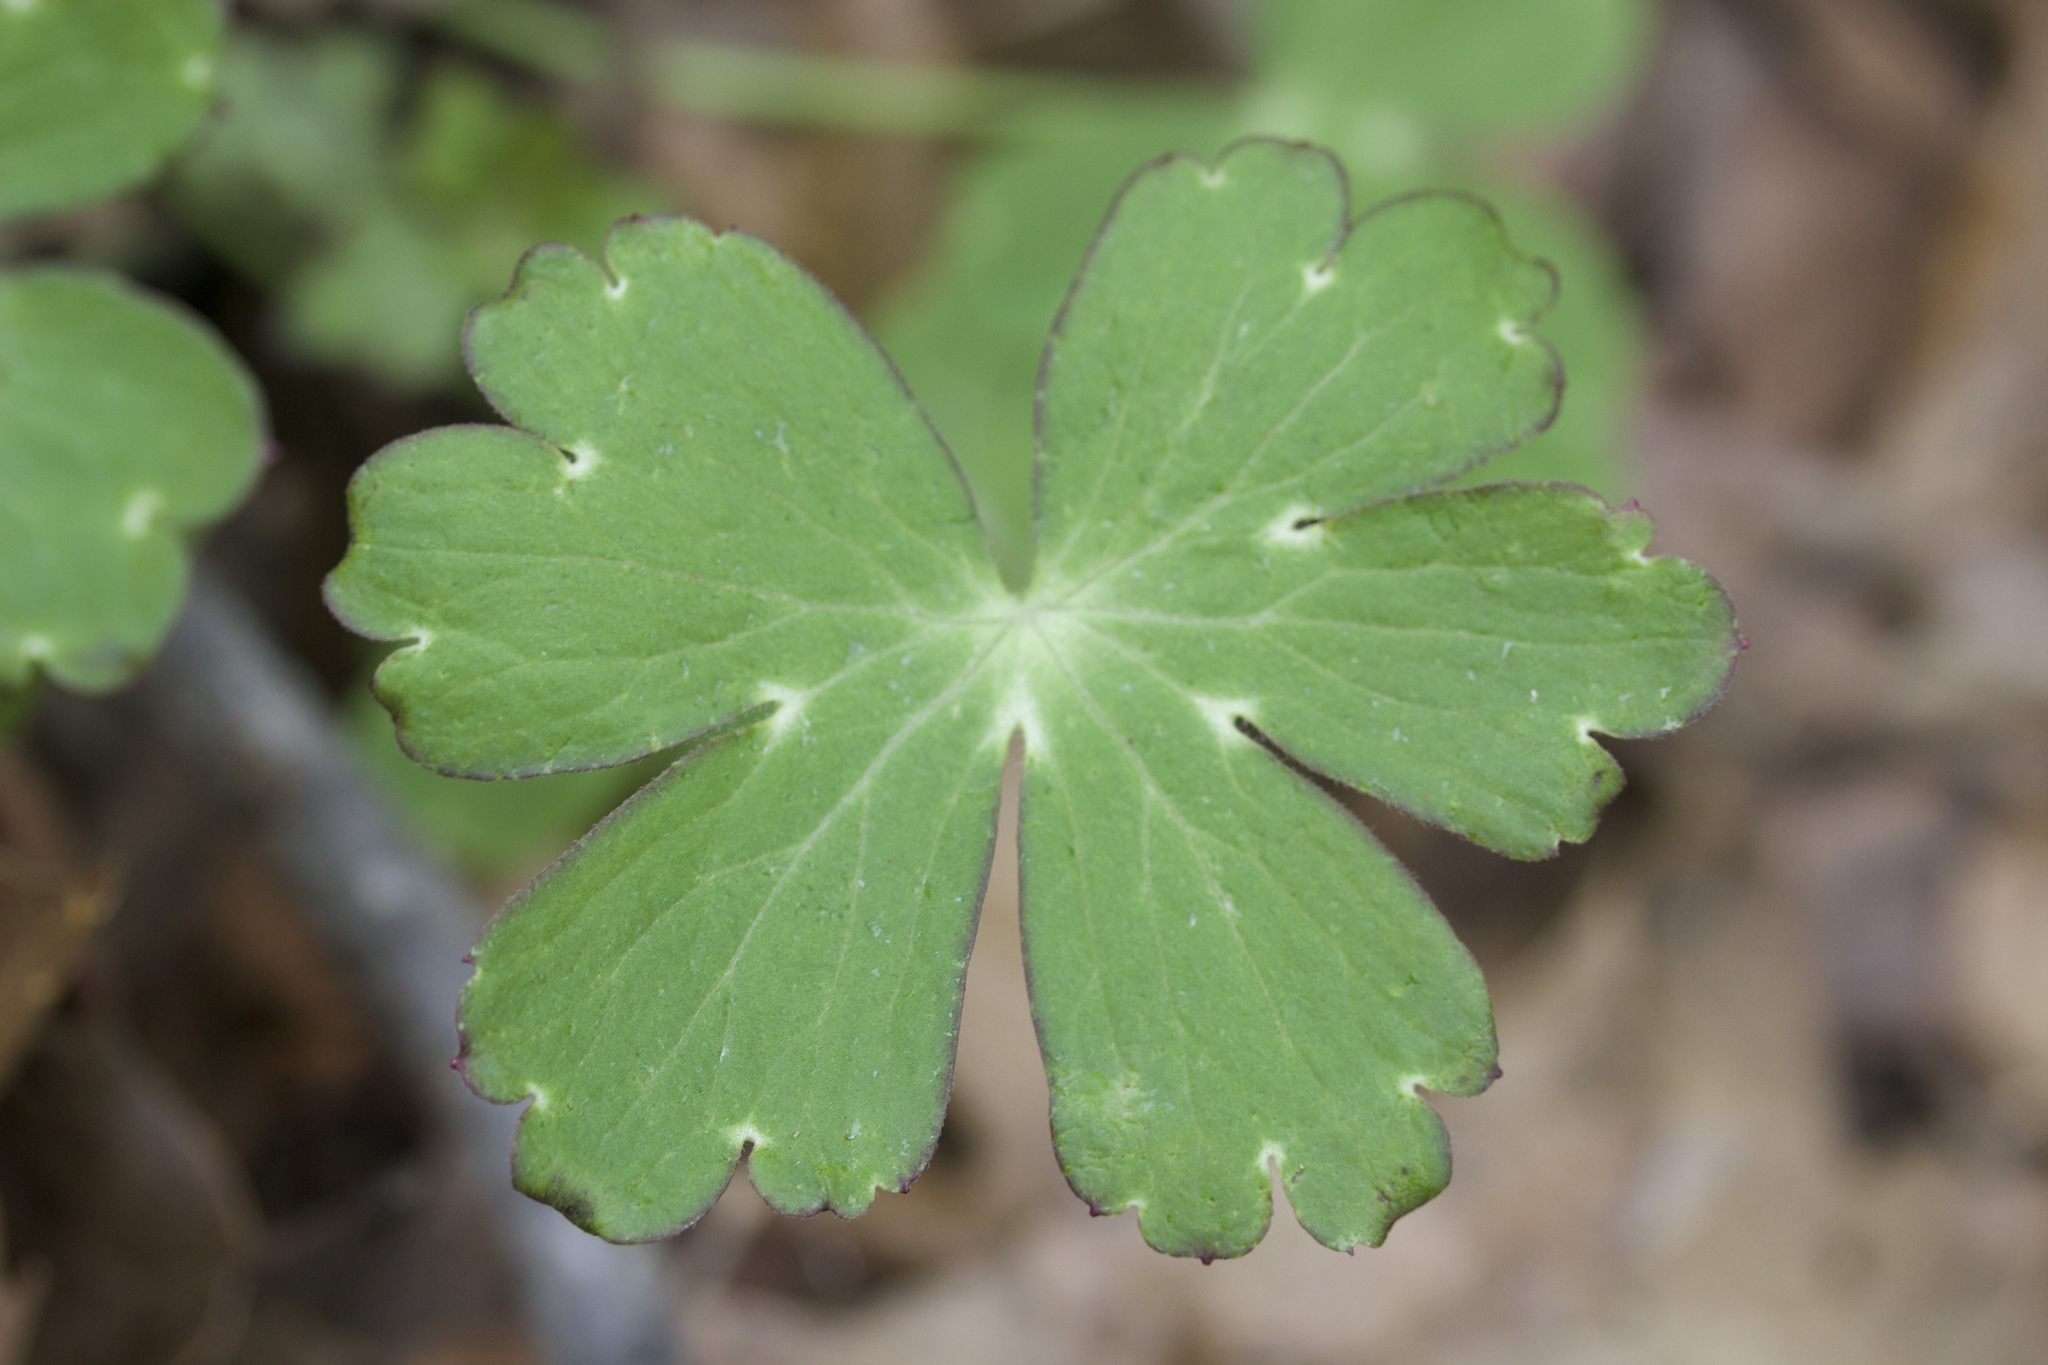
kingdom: Plantae
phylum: Tracheophyta
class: Magnoliopsida
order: Ranunculales
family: Ranunculaceae
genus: Delphinium
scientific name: Delphinium nudicaule
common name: Red larkspur
